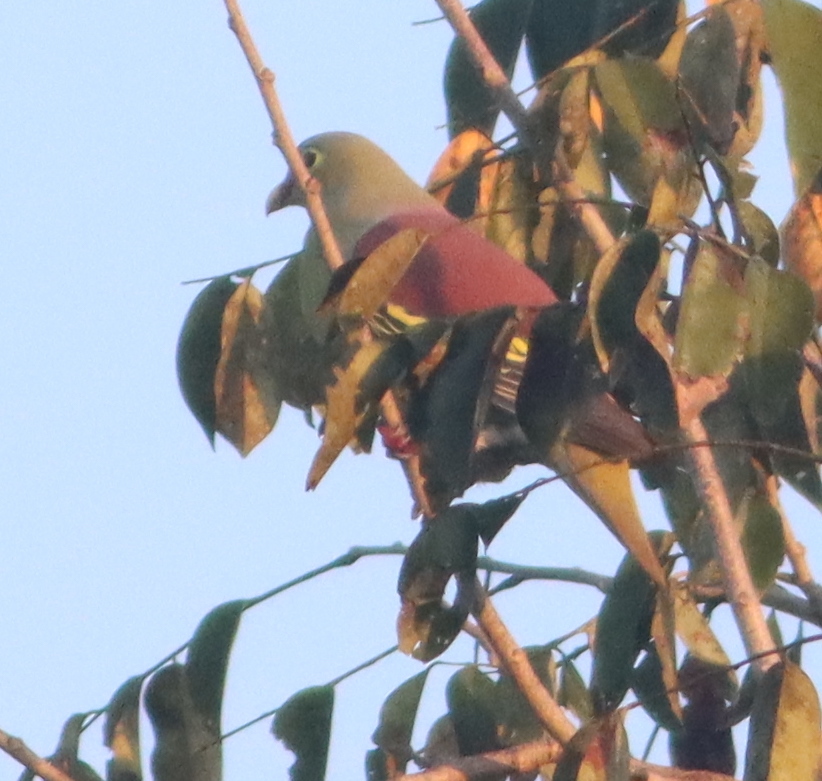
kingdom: Animalia
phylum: Chordata
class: Aves
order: Columbiformes
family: Columbidae
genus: Treron
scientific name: Treron curvirostra
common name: Thick-billed green pigeon
